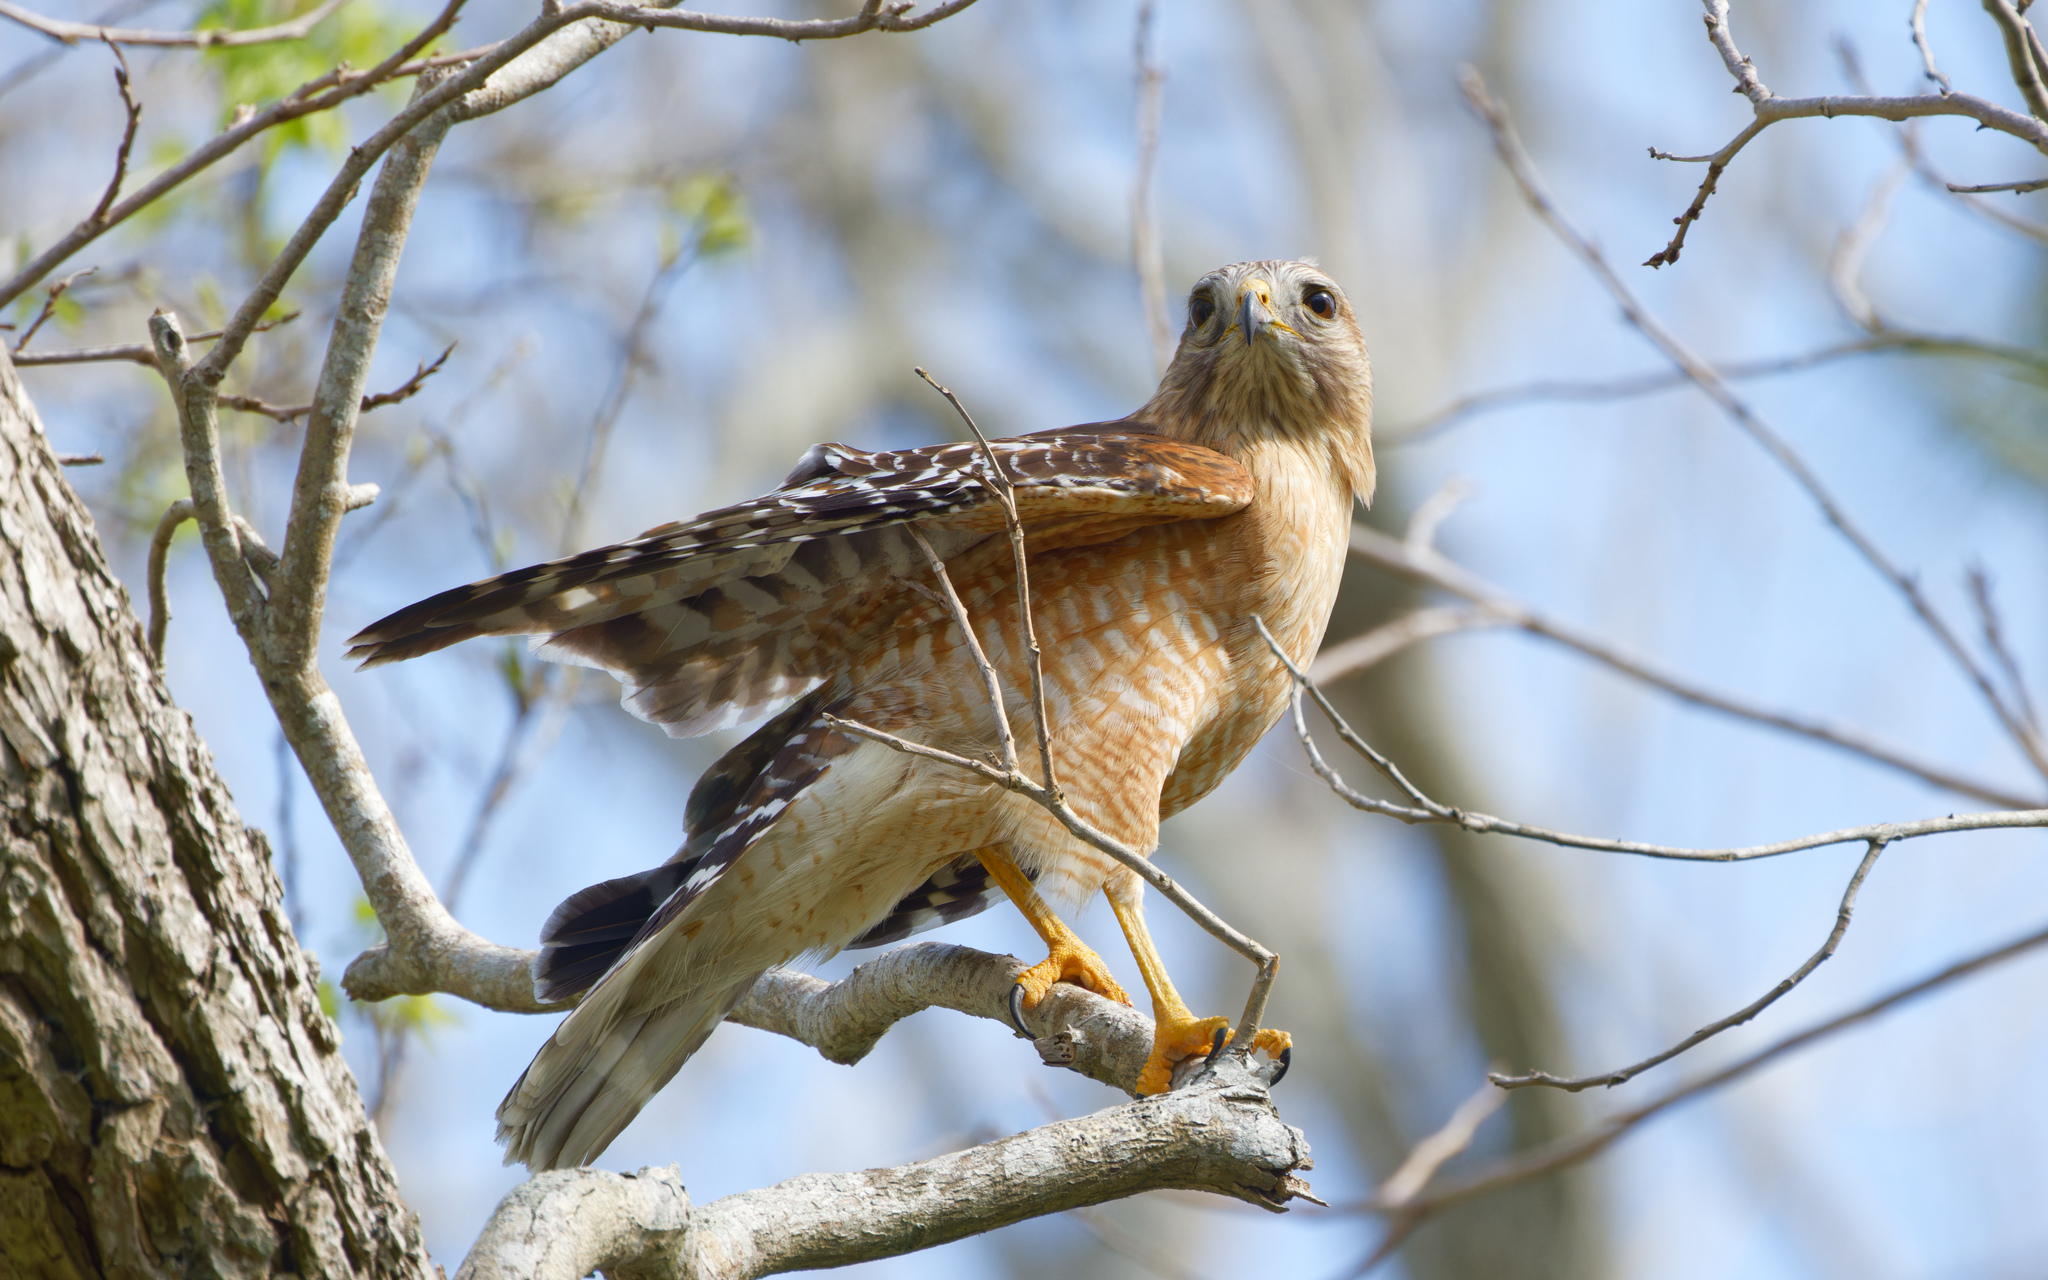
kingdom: Animalia
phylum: Chordata
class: Aves
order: Accipitriformes
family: Accipitridae
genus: Buteo
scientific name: Buteo lineatus
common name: Red-shouldered hawk
